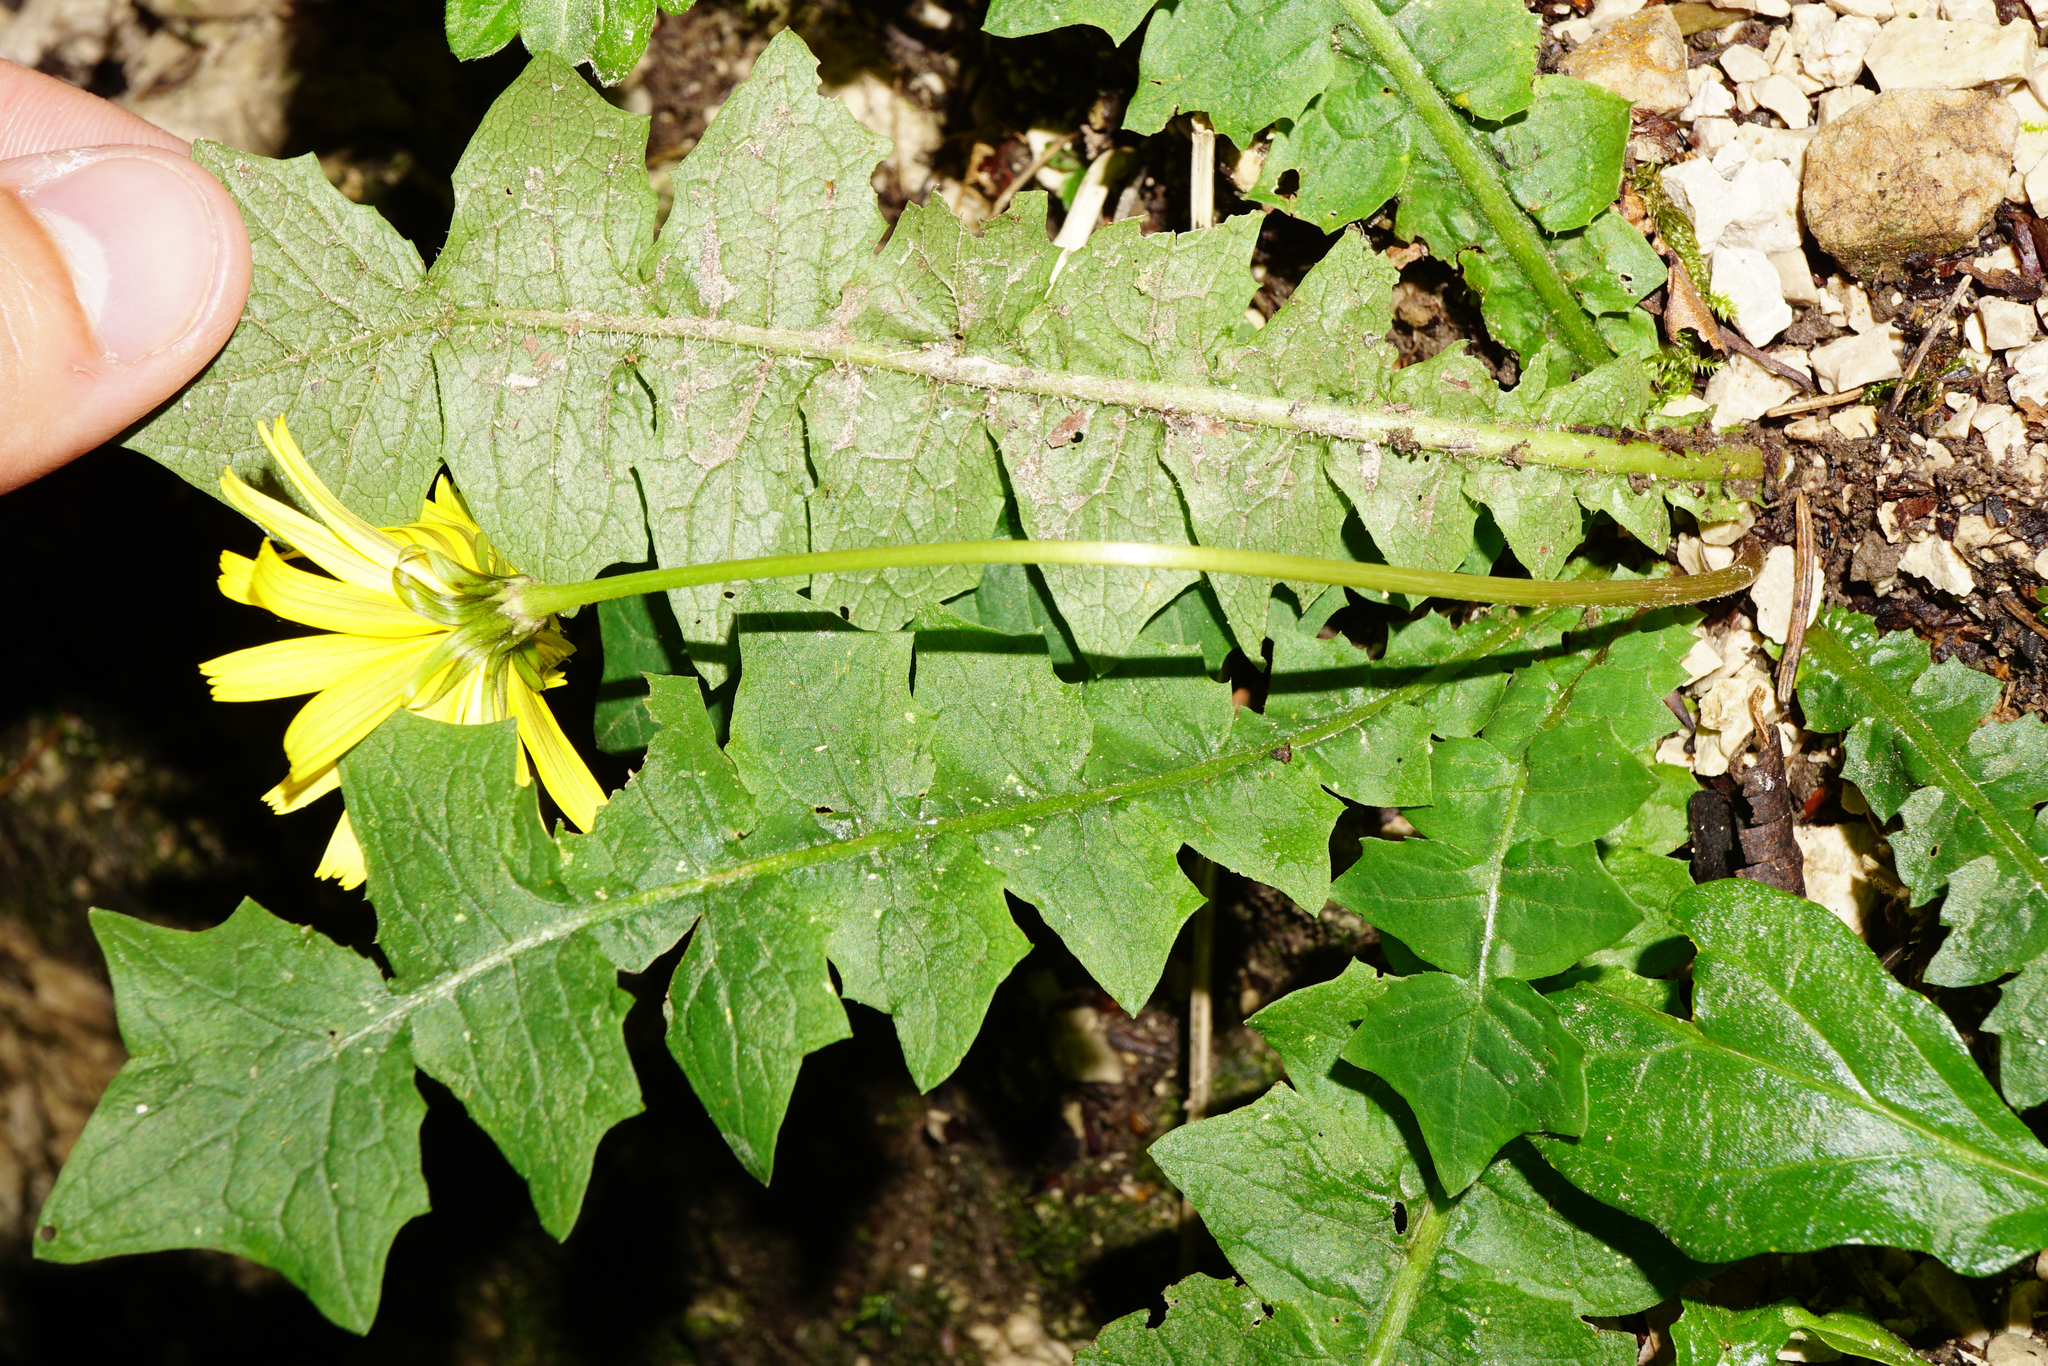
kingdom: Plantae
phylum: Tracheophyta
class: Magnoliopsida
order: Asterales
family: Asteraceae
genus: Aposeris
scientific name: Aposeris foetida
